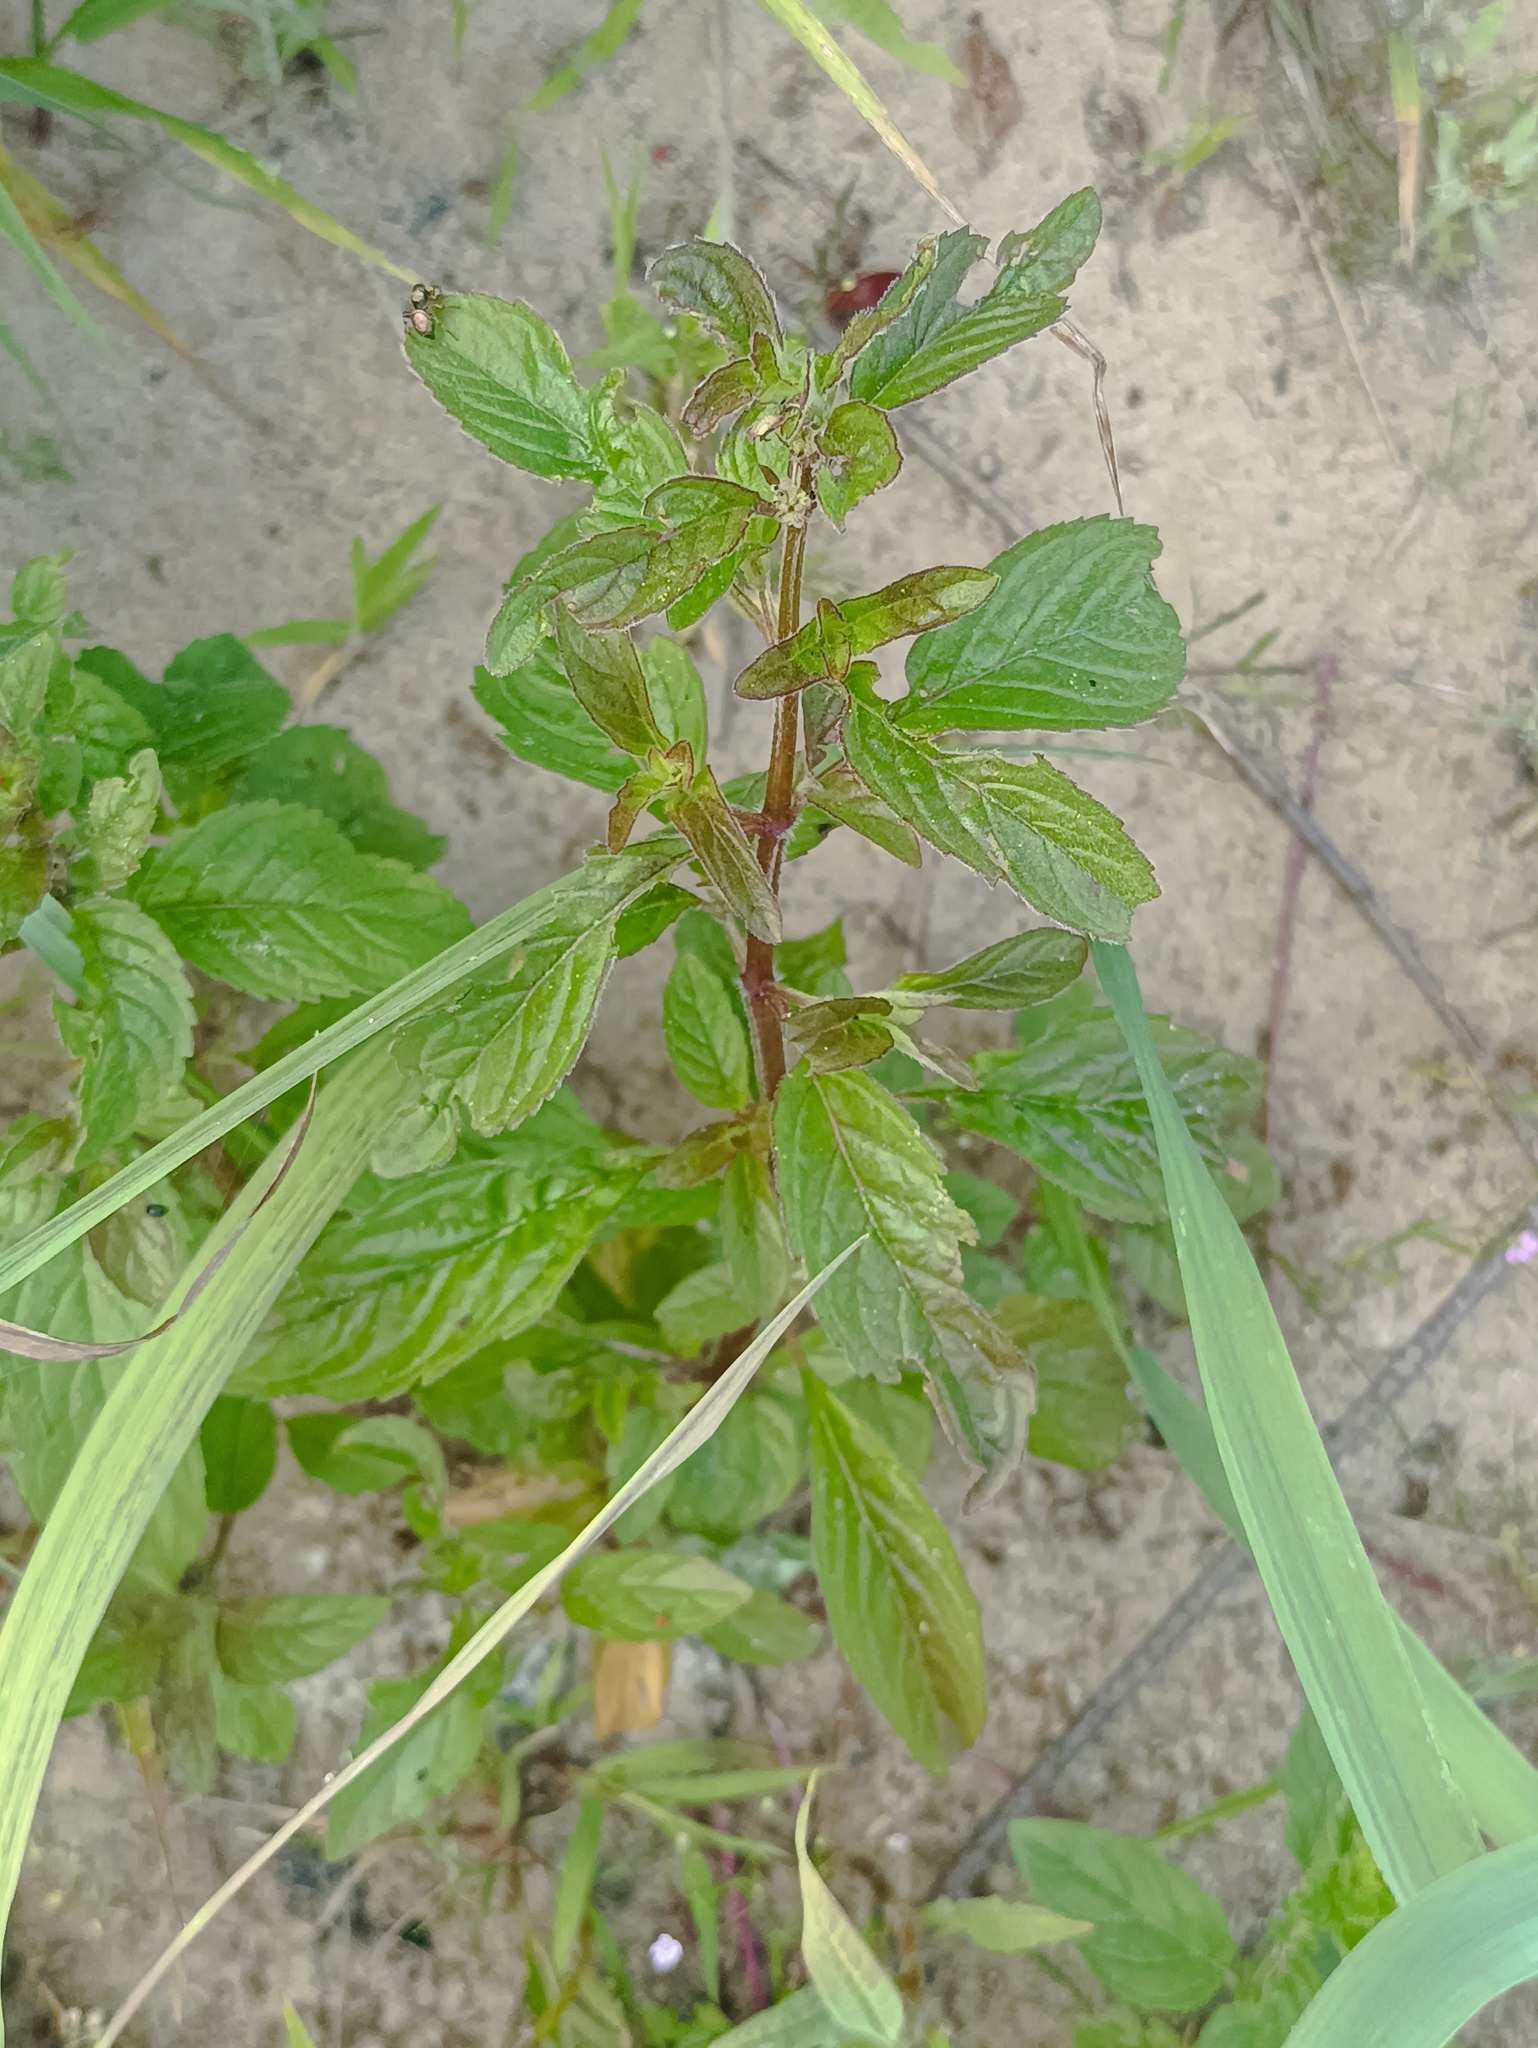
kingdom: Plantae
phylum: Tracheophyta
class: Magnoliopsida
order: Lamiales
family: Lamiaceae
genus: Mentha
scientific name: Mentha arvensis
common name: Corn mint
